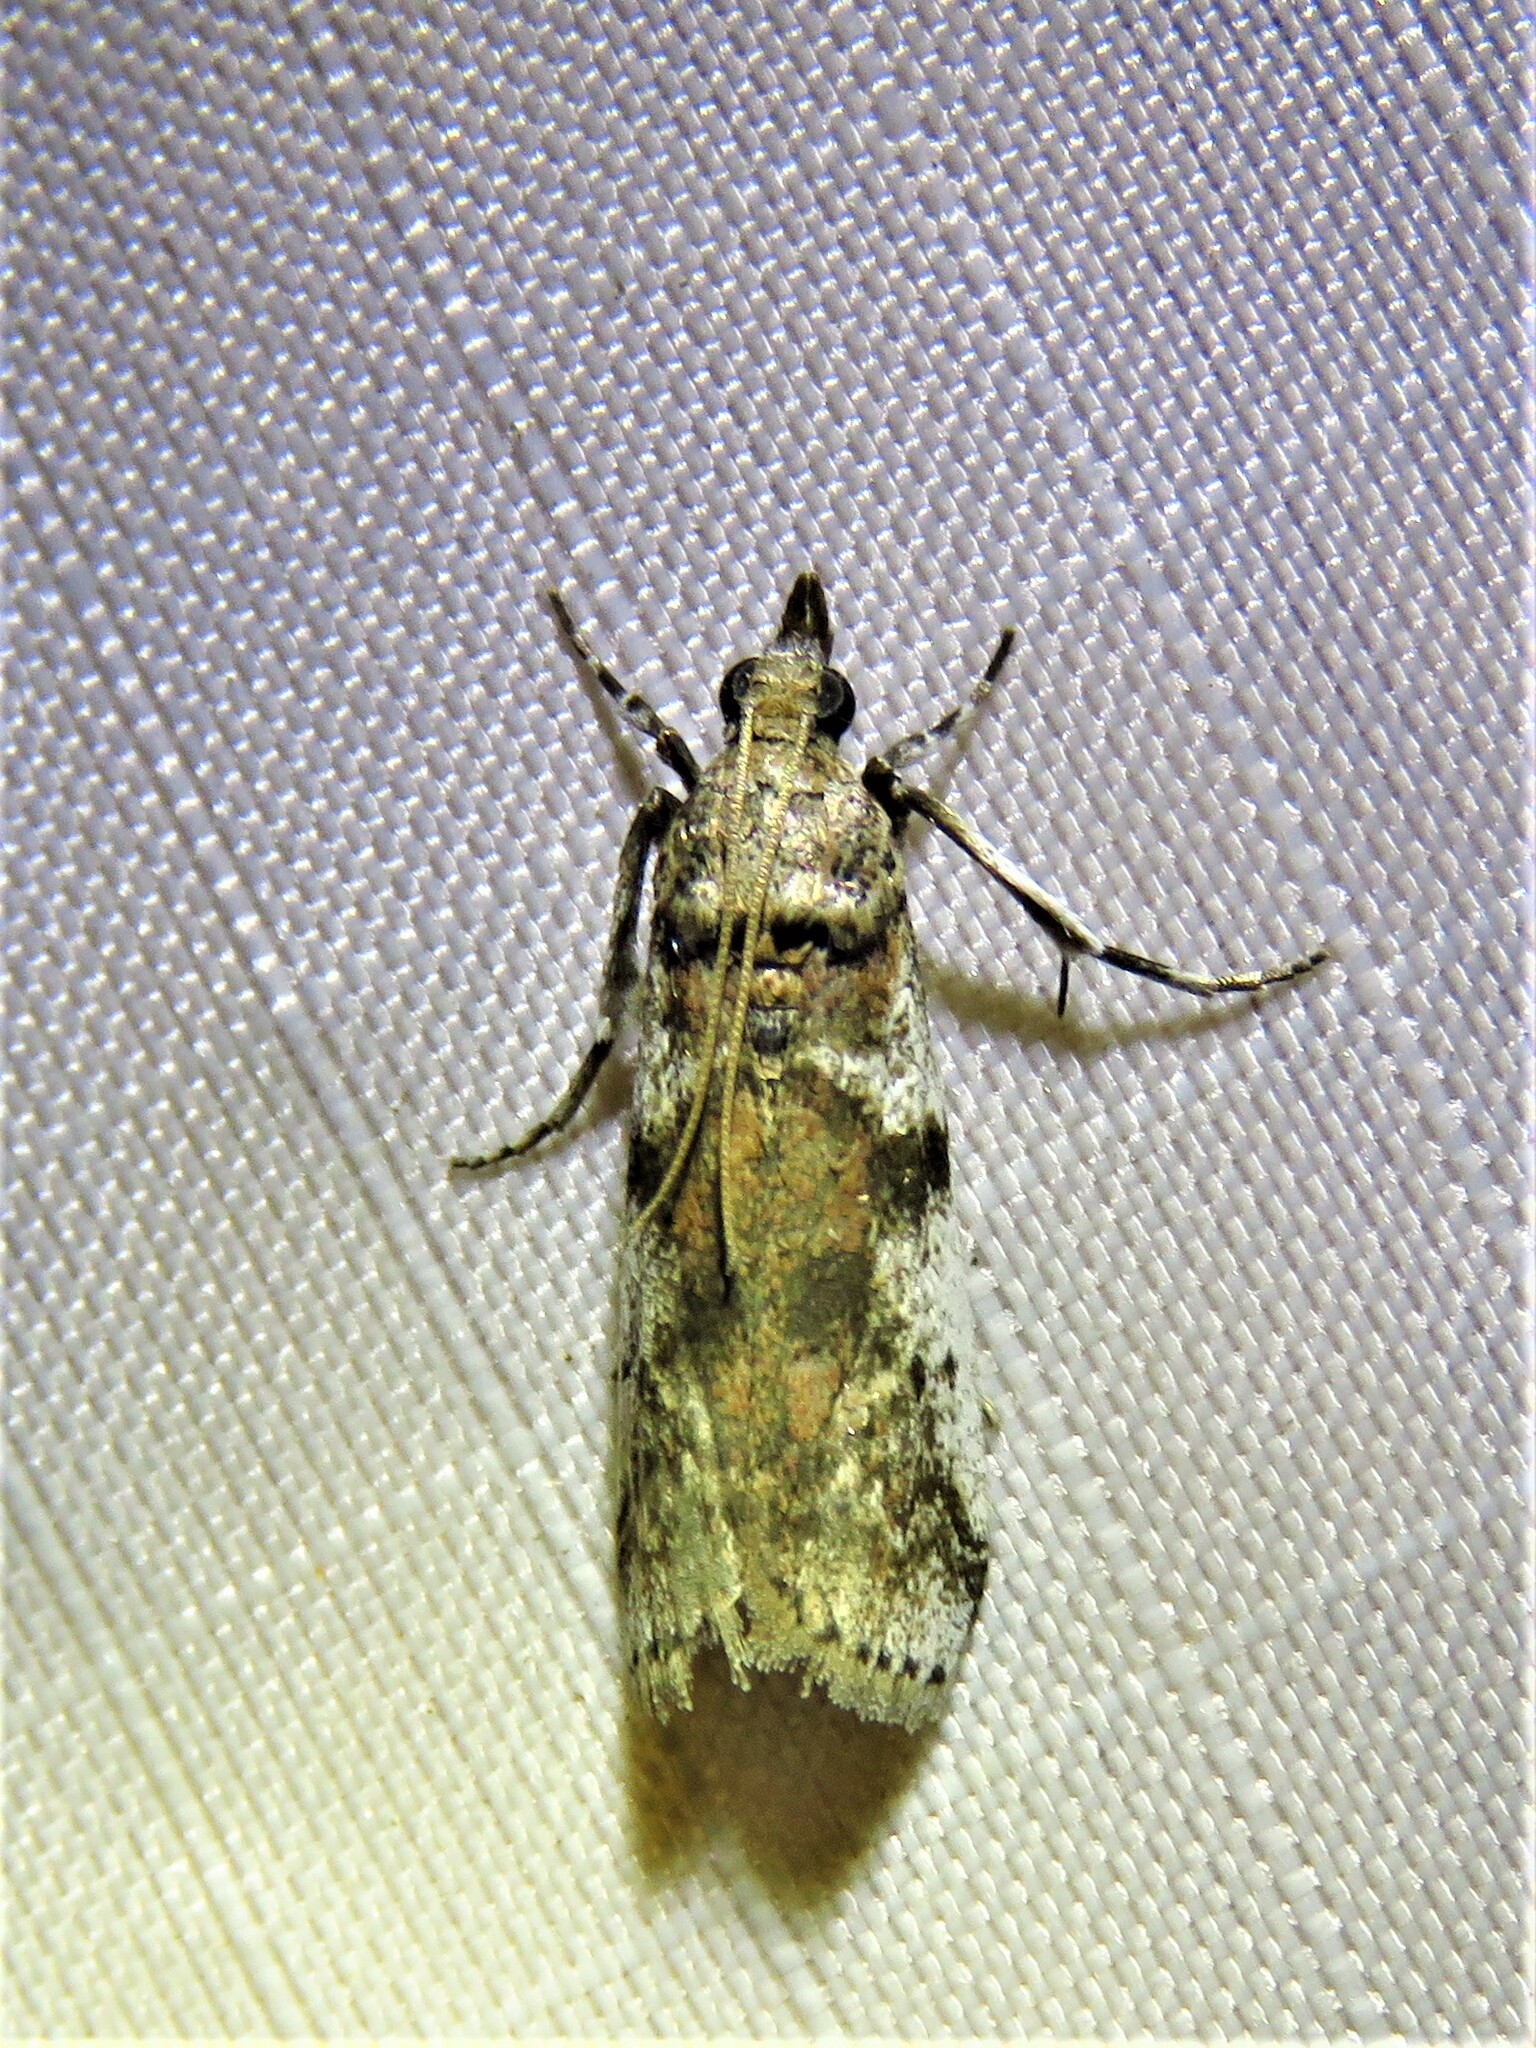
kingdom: Animalia
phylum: Arthropoda
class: Insecta
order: Lepidoptera
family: Pyralidae
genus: Laetilia
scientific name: Laetilia coccidivora
